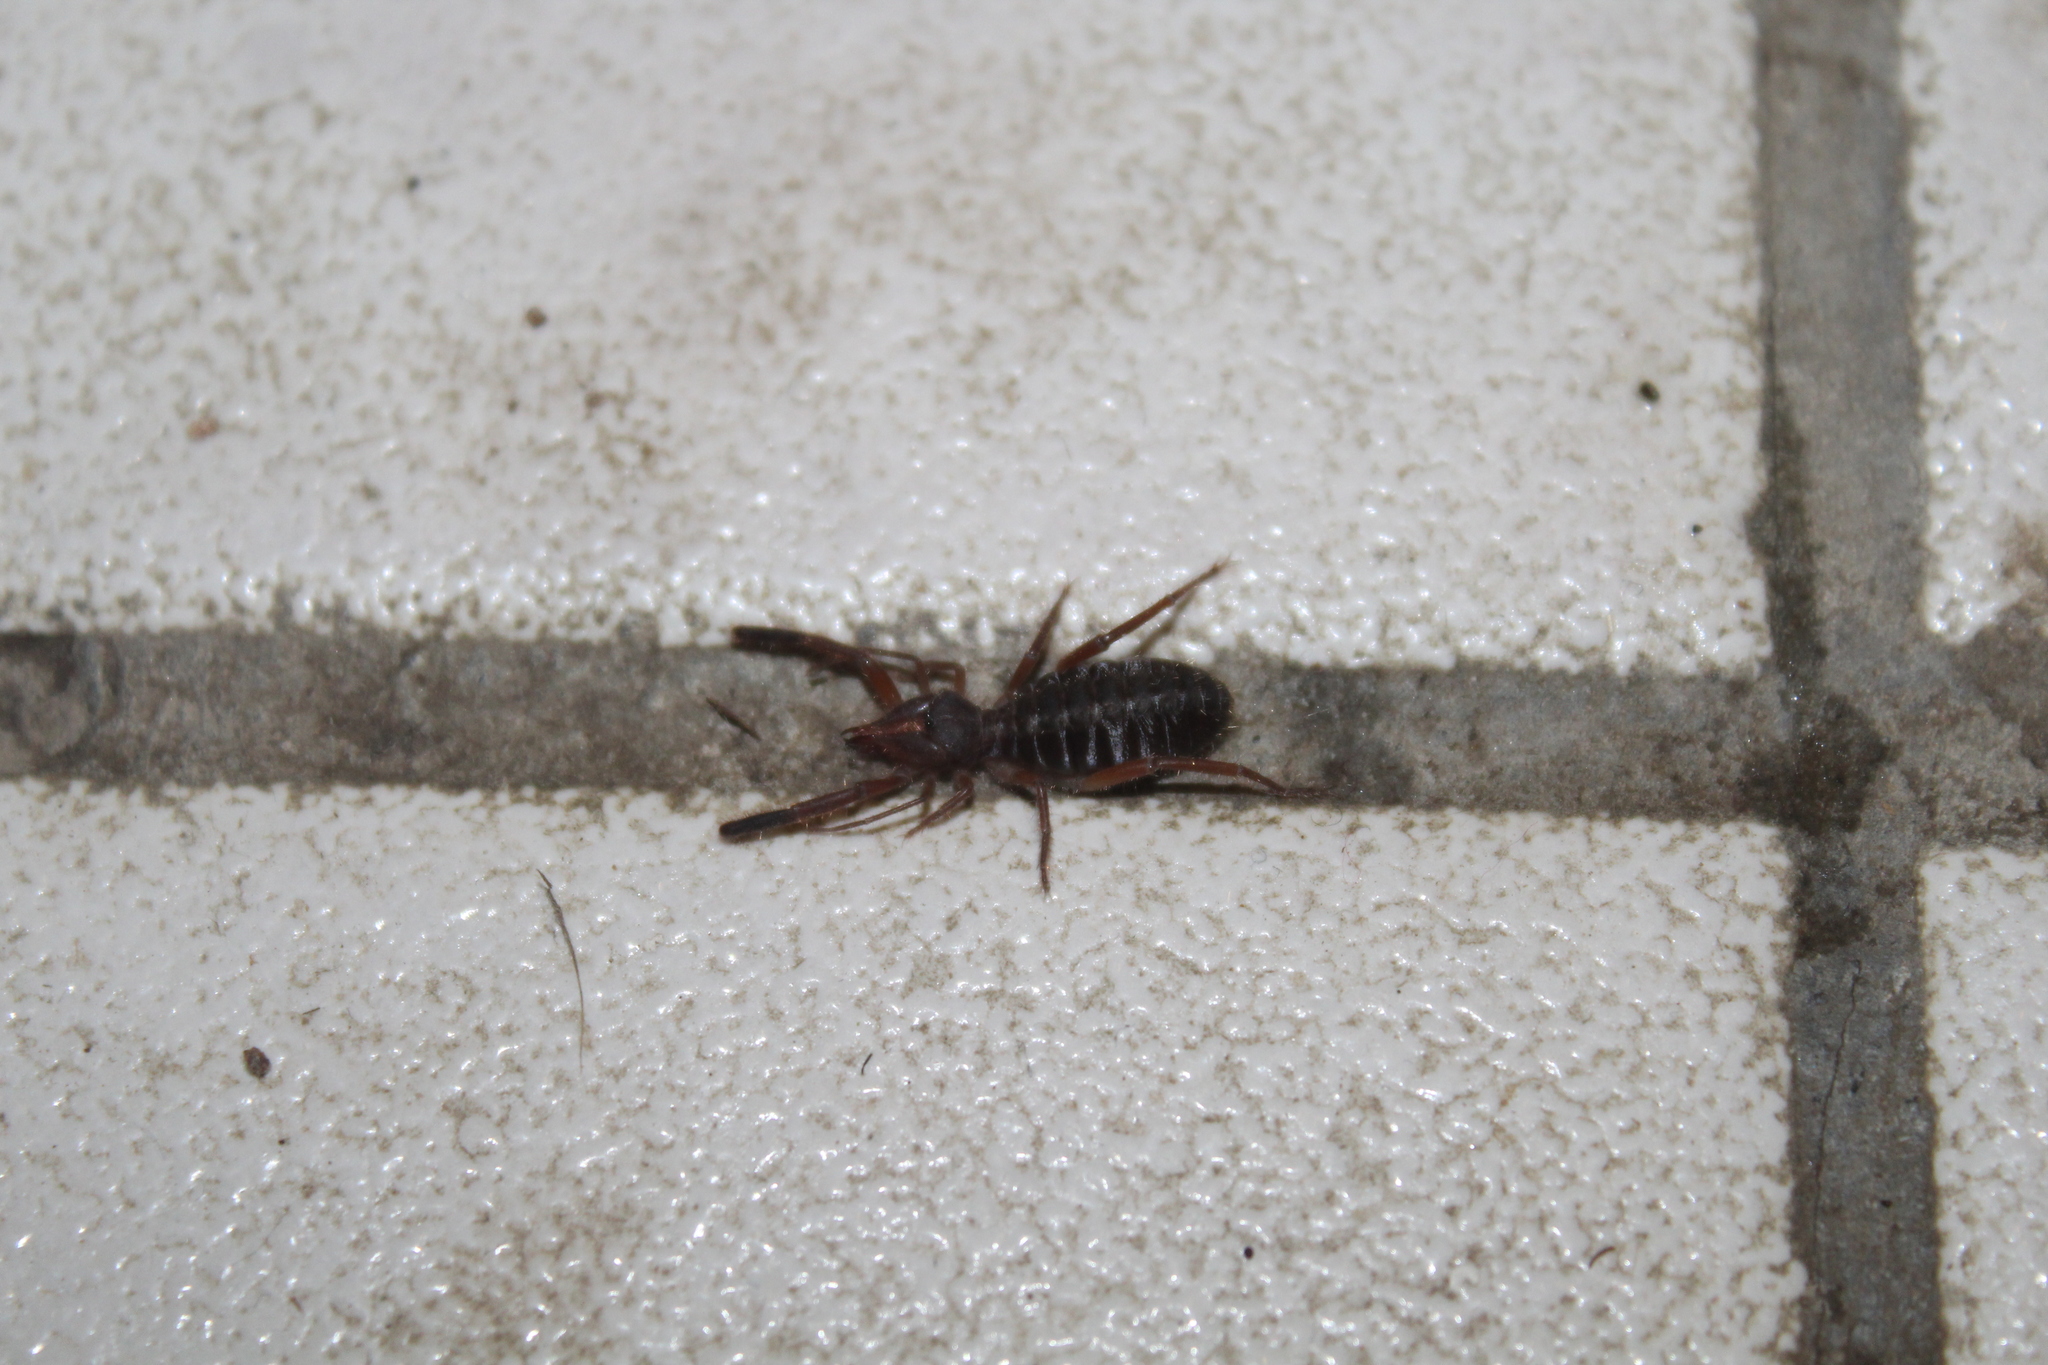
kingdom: Animalia
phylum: Arthropoda
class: Arachnida
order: Solifugae
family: Daesiidae
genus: Gluvia
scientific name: Gluvia dorsalis
